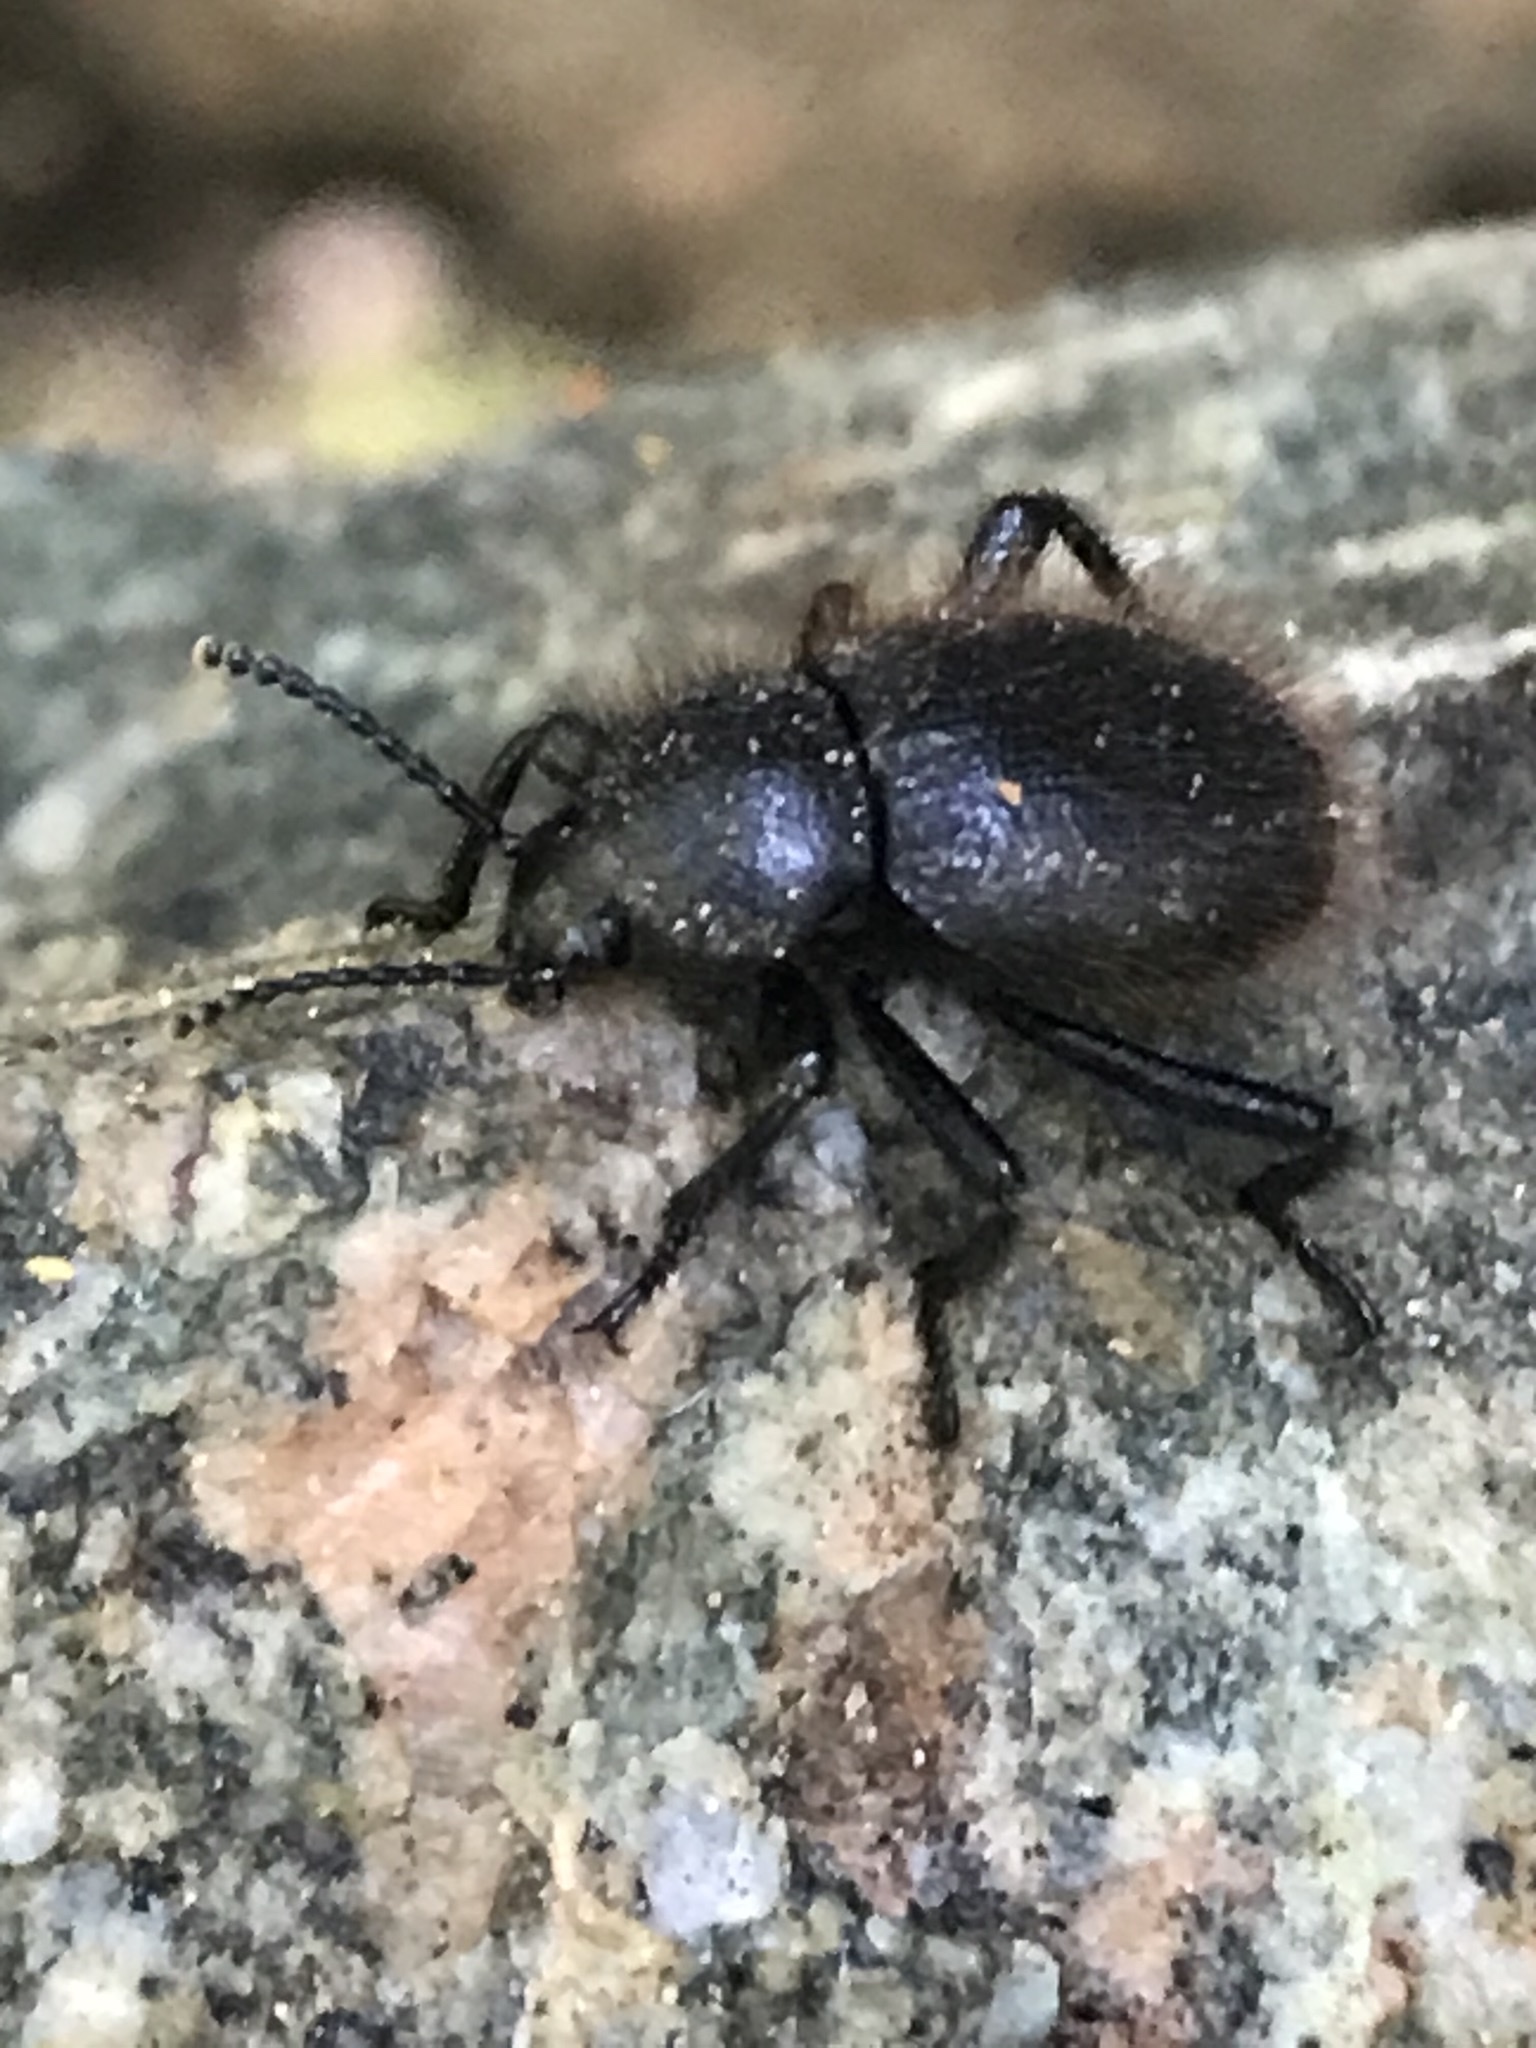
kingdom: Animalia
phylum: Arthropoda
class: Insecta
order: Coleoptera
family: Tenebrionidae
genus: Eleodes
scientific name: Eleodes osculans
